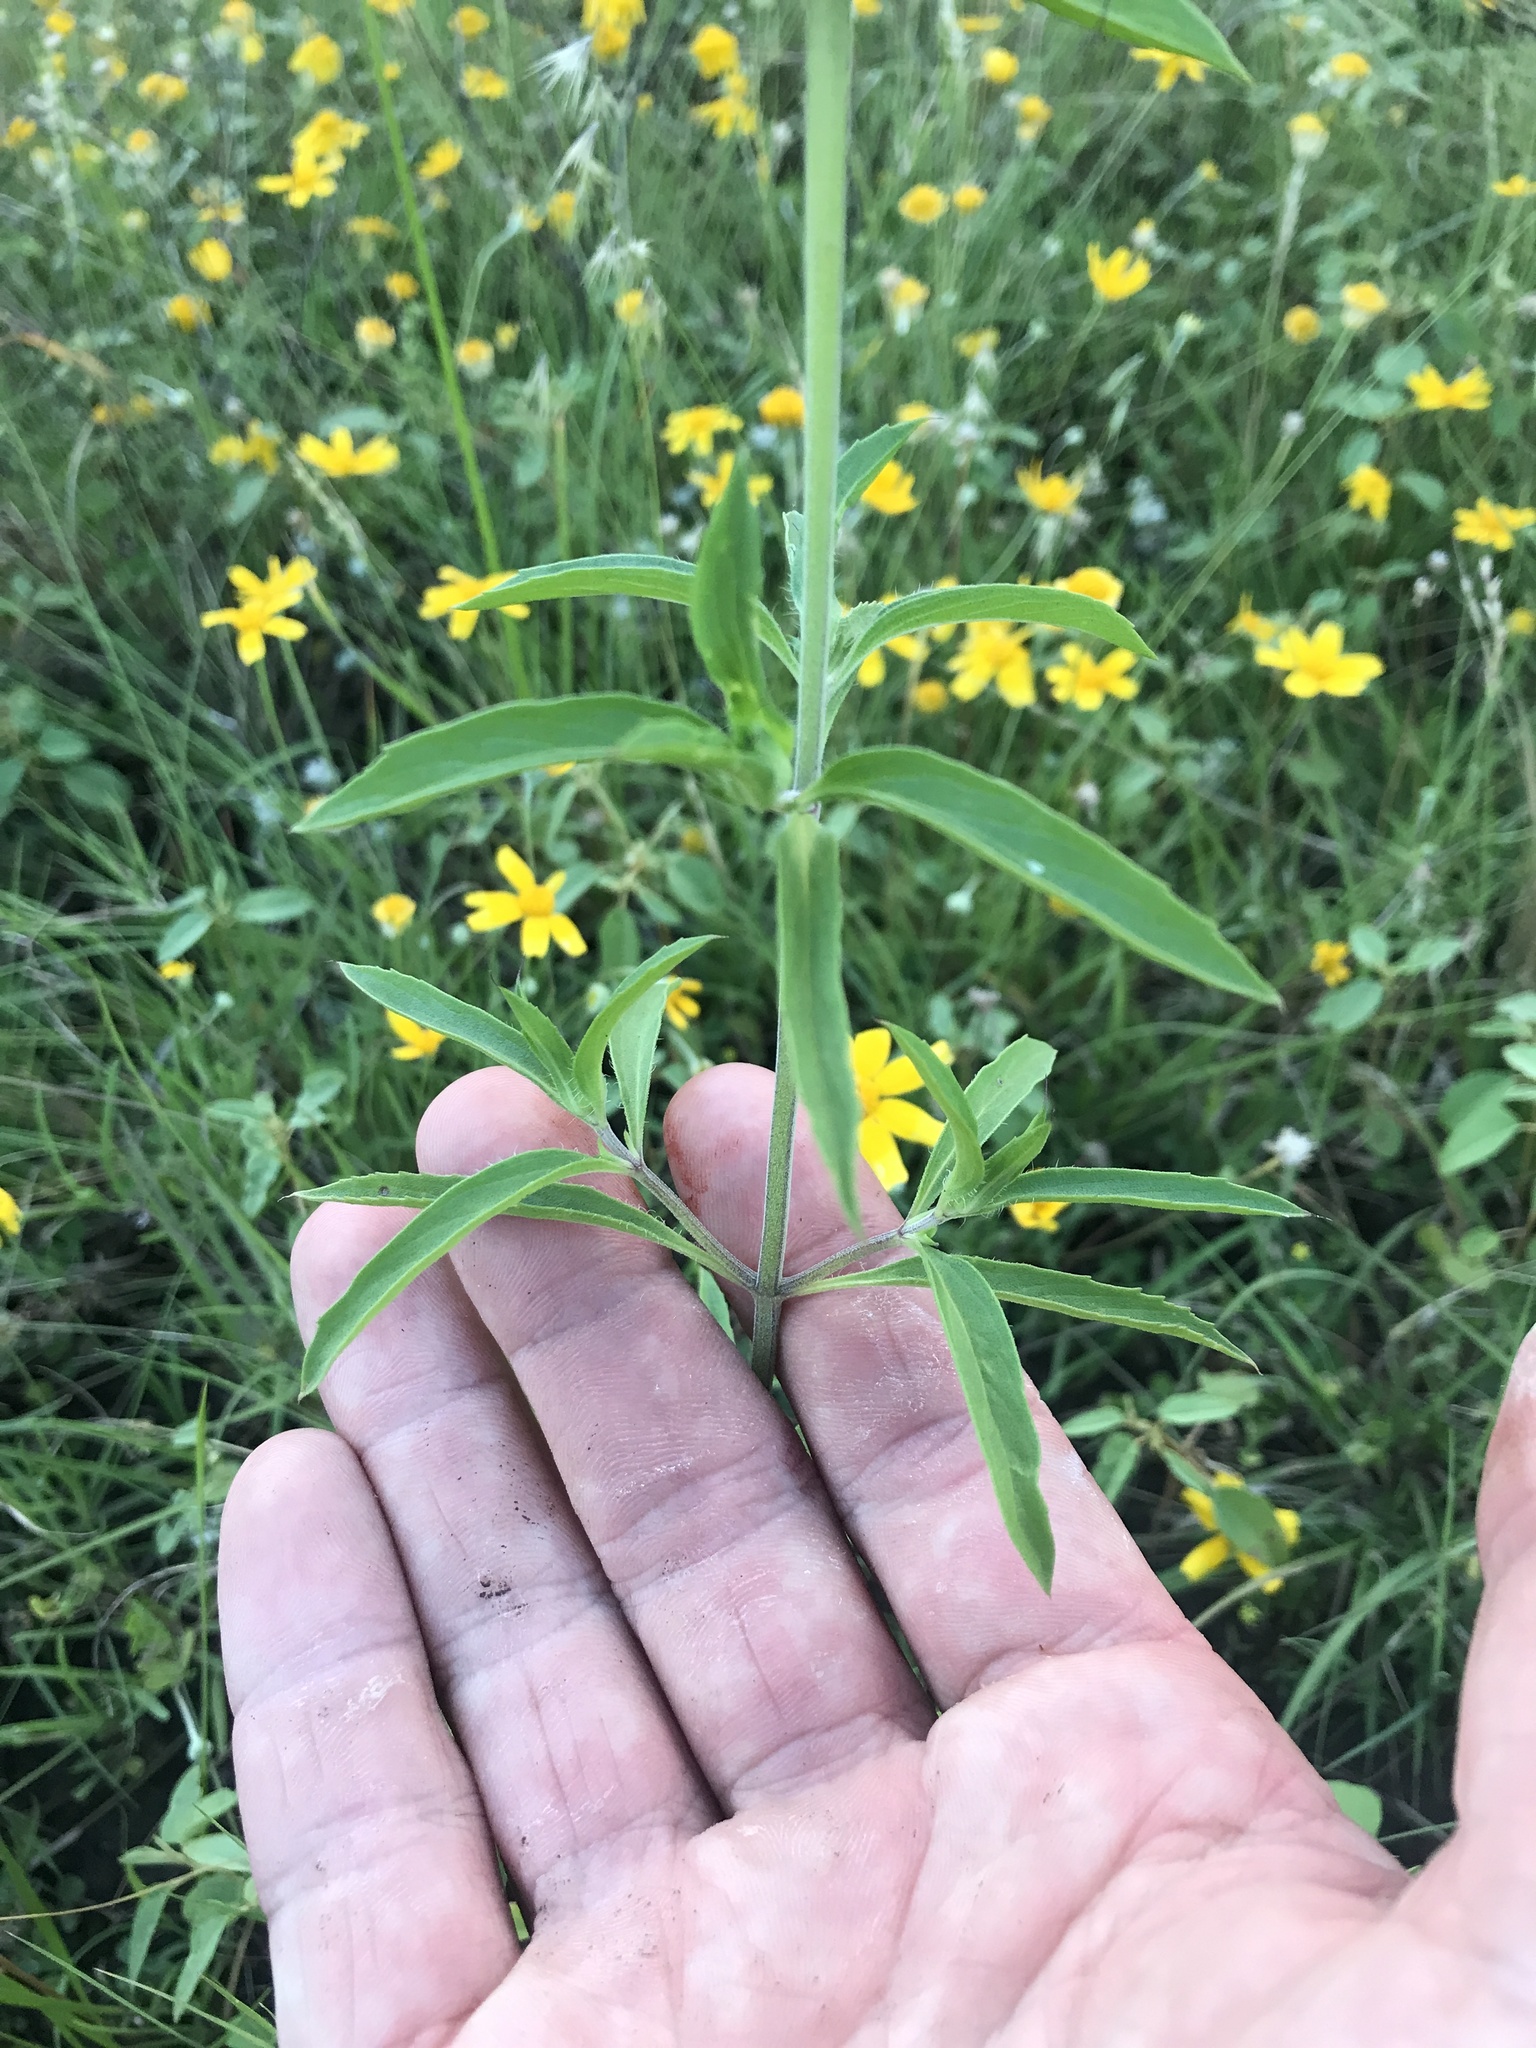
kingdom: Plantae
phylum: Tracheophyta
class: Magnoliopsida
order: Lamiales
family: Lamiaceae
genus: Monarda
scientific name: Monarda citriodora
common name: Lemon beebalm
